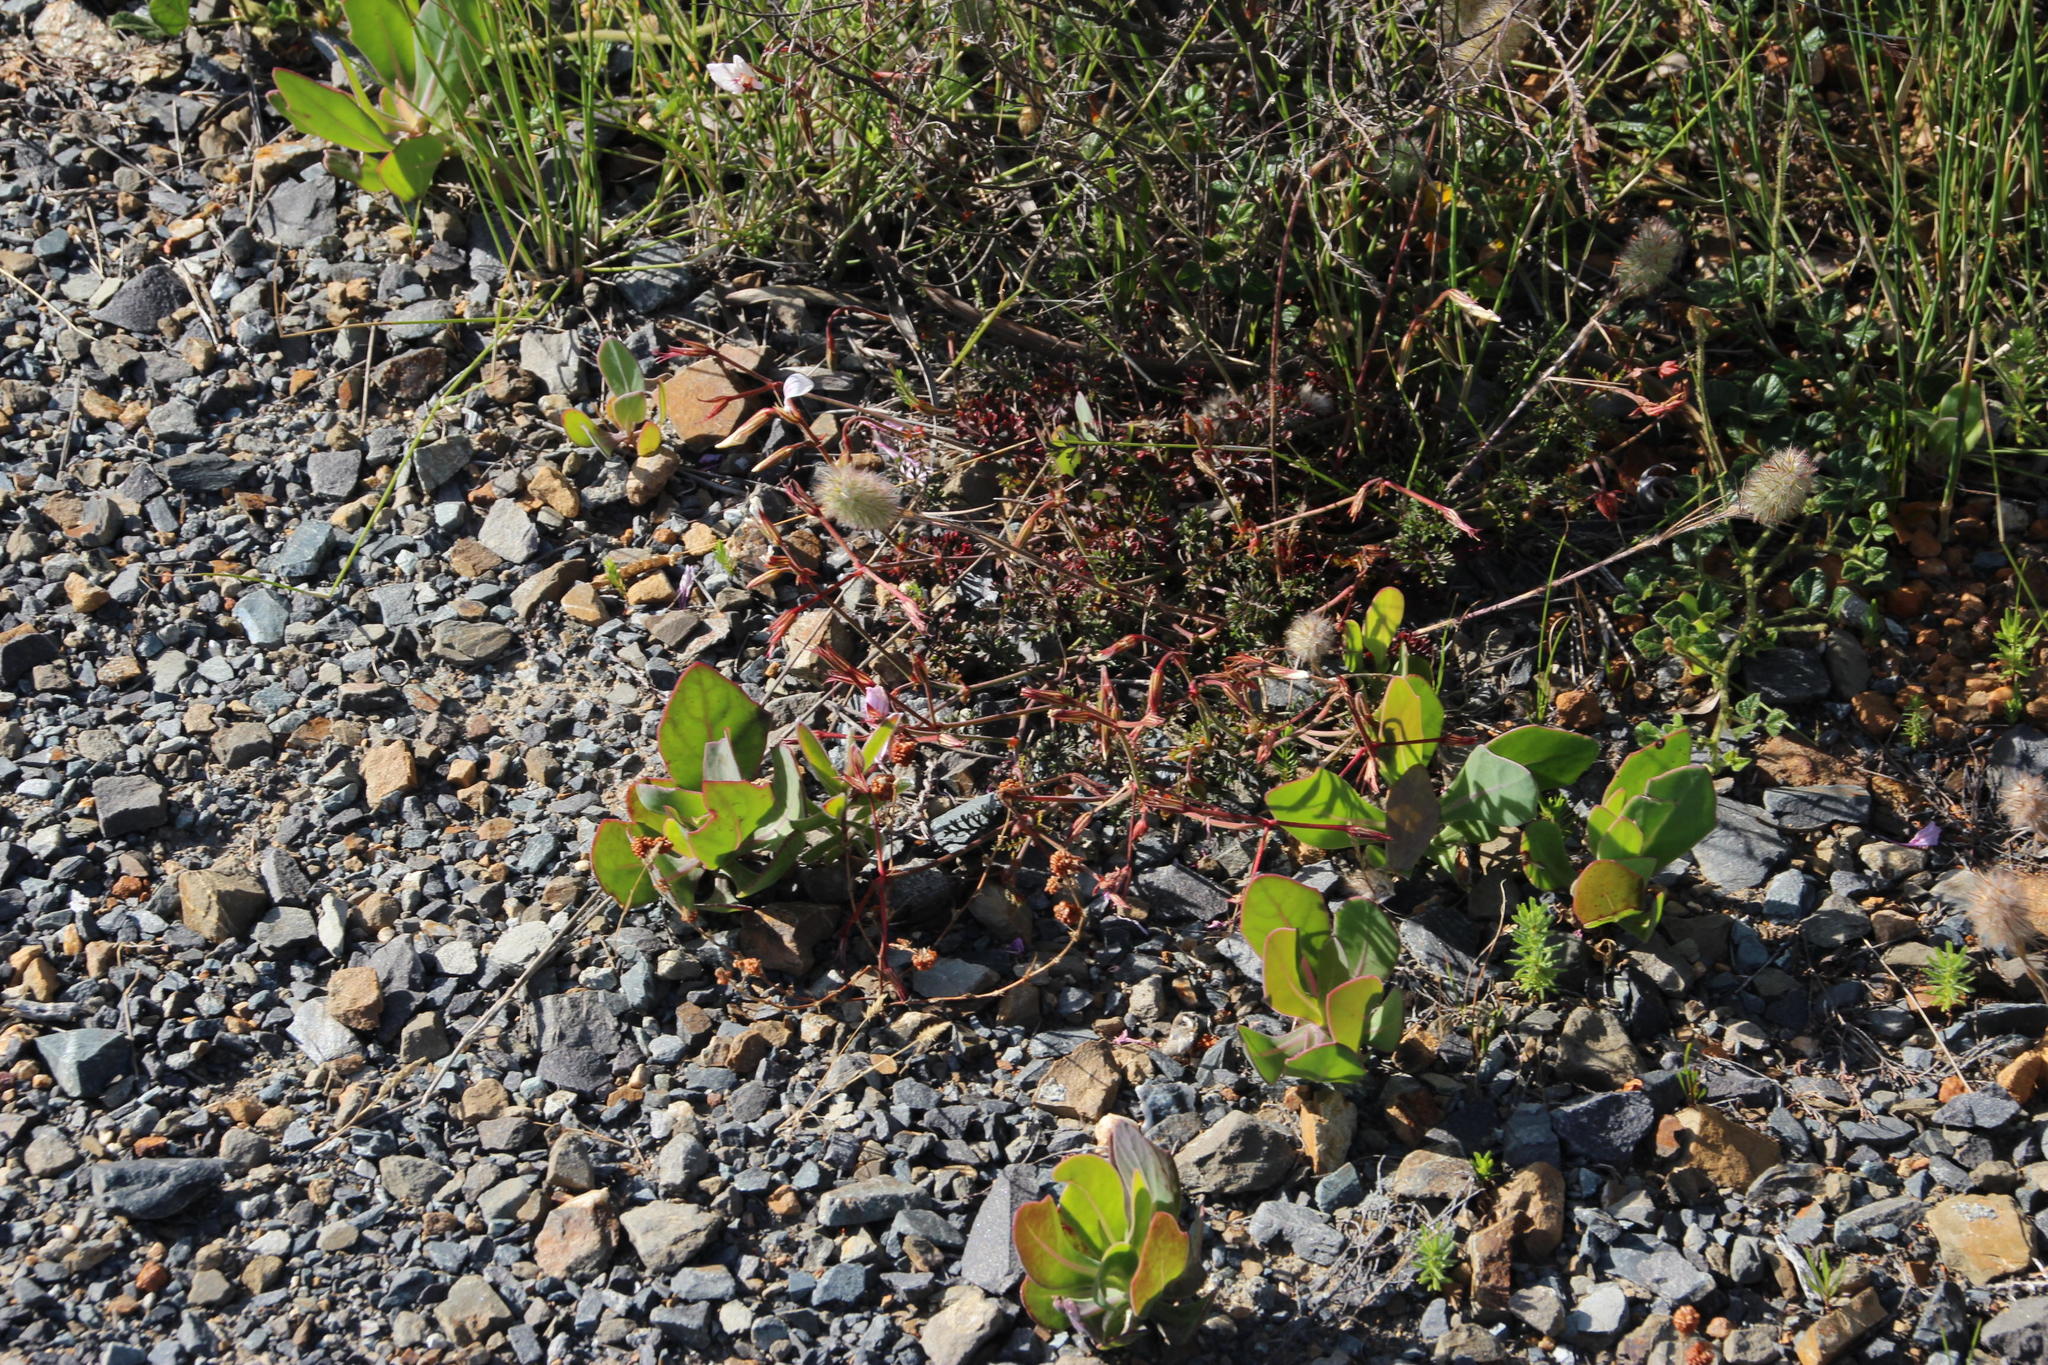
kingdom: Plantae
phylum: Tracheophyta
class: Magnoliopsida
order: Geraniales
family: Geraniaceae
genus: Pelargonium
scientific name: Pelargonium myrrhifolium
